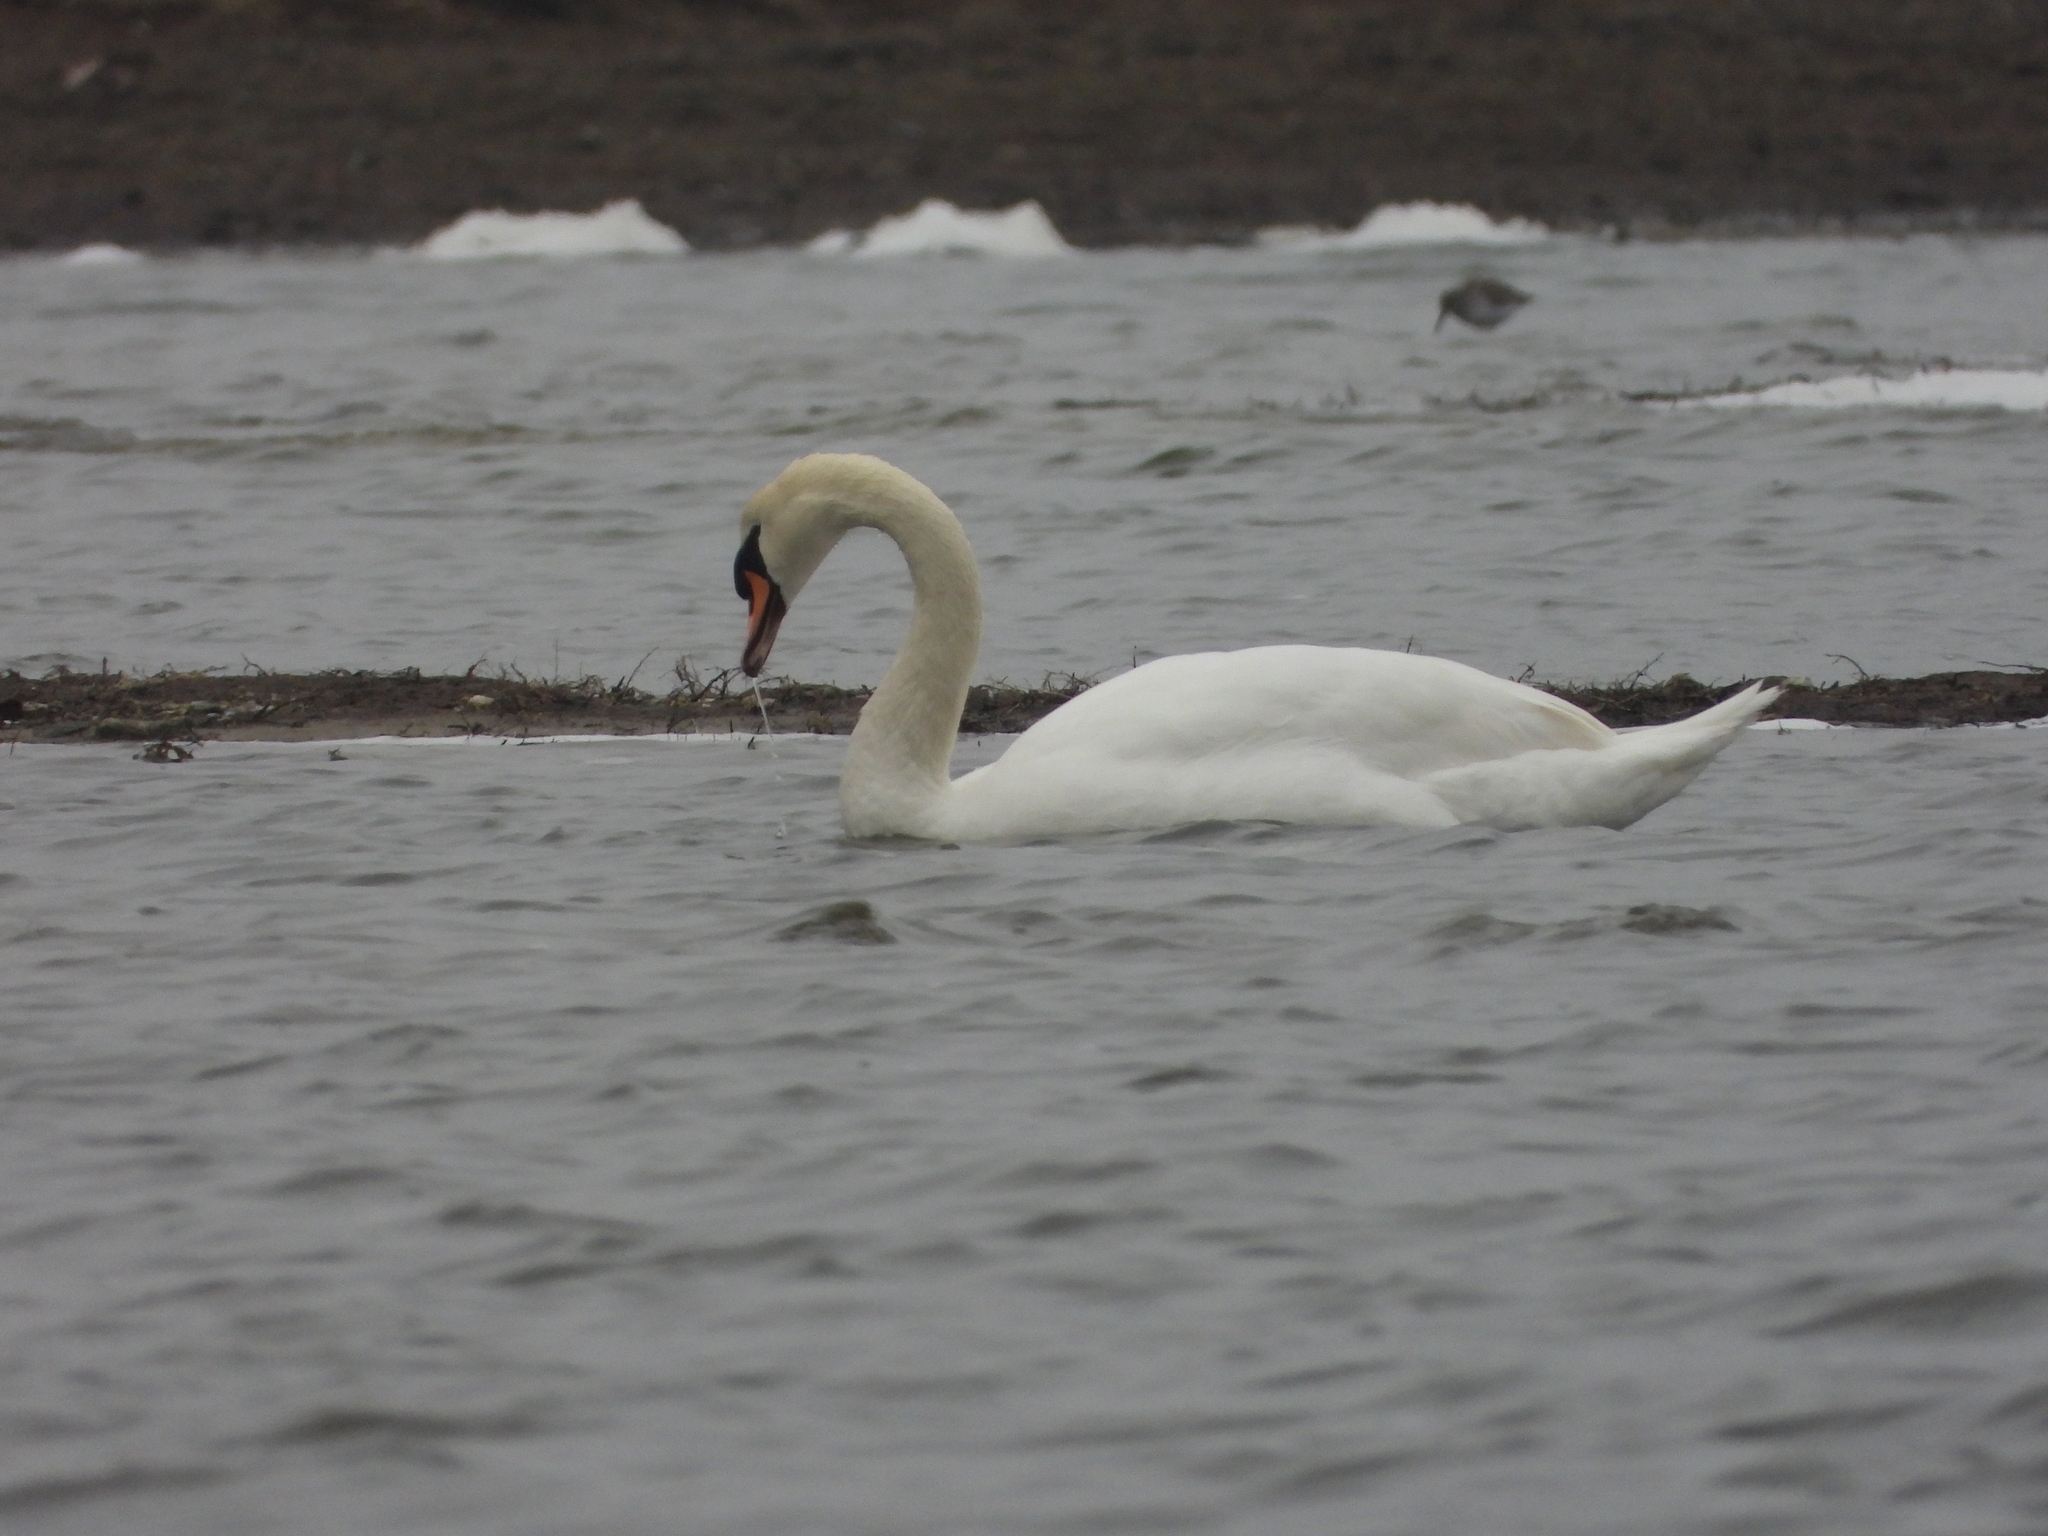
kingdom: Animalia
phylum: Chordata
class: Aves
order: Anseriformes
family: Anatidae
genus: Cygnus
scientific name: Cygnus olor
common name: Mute swan
